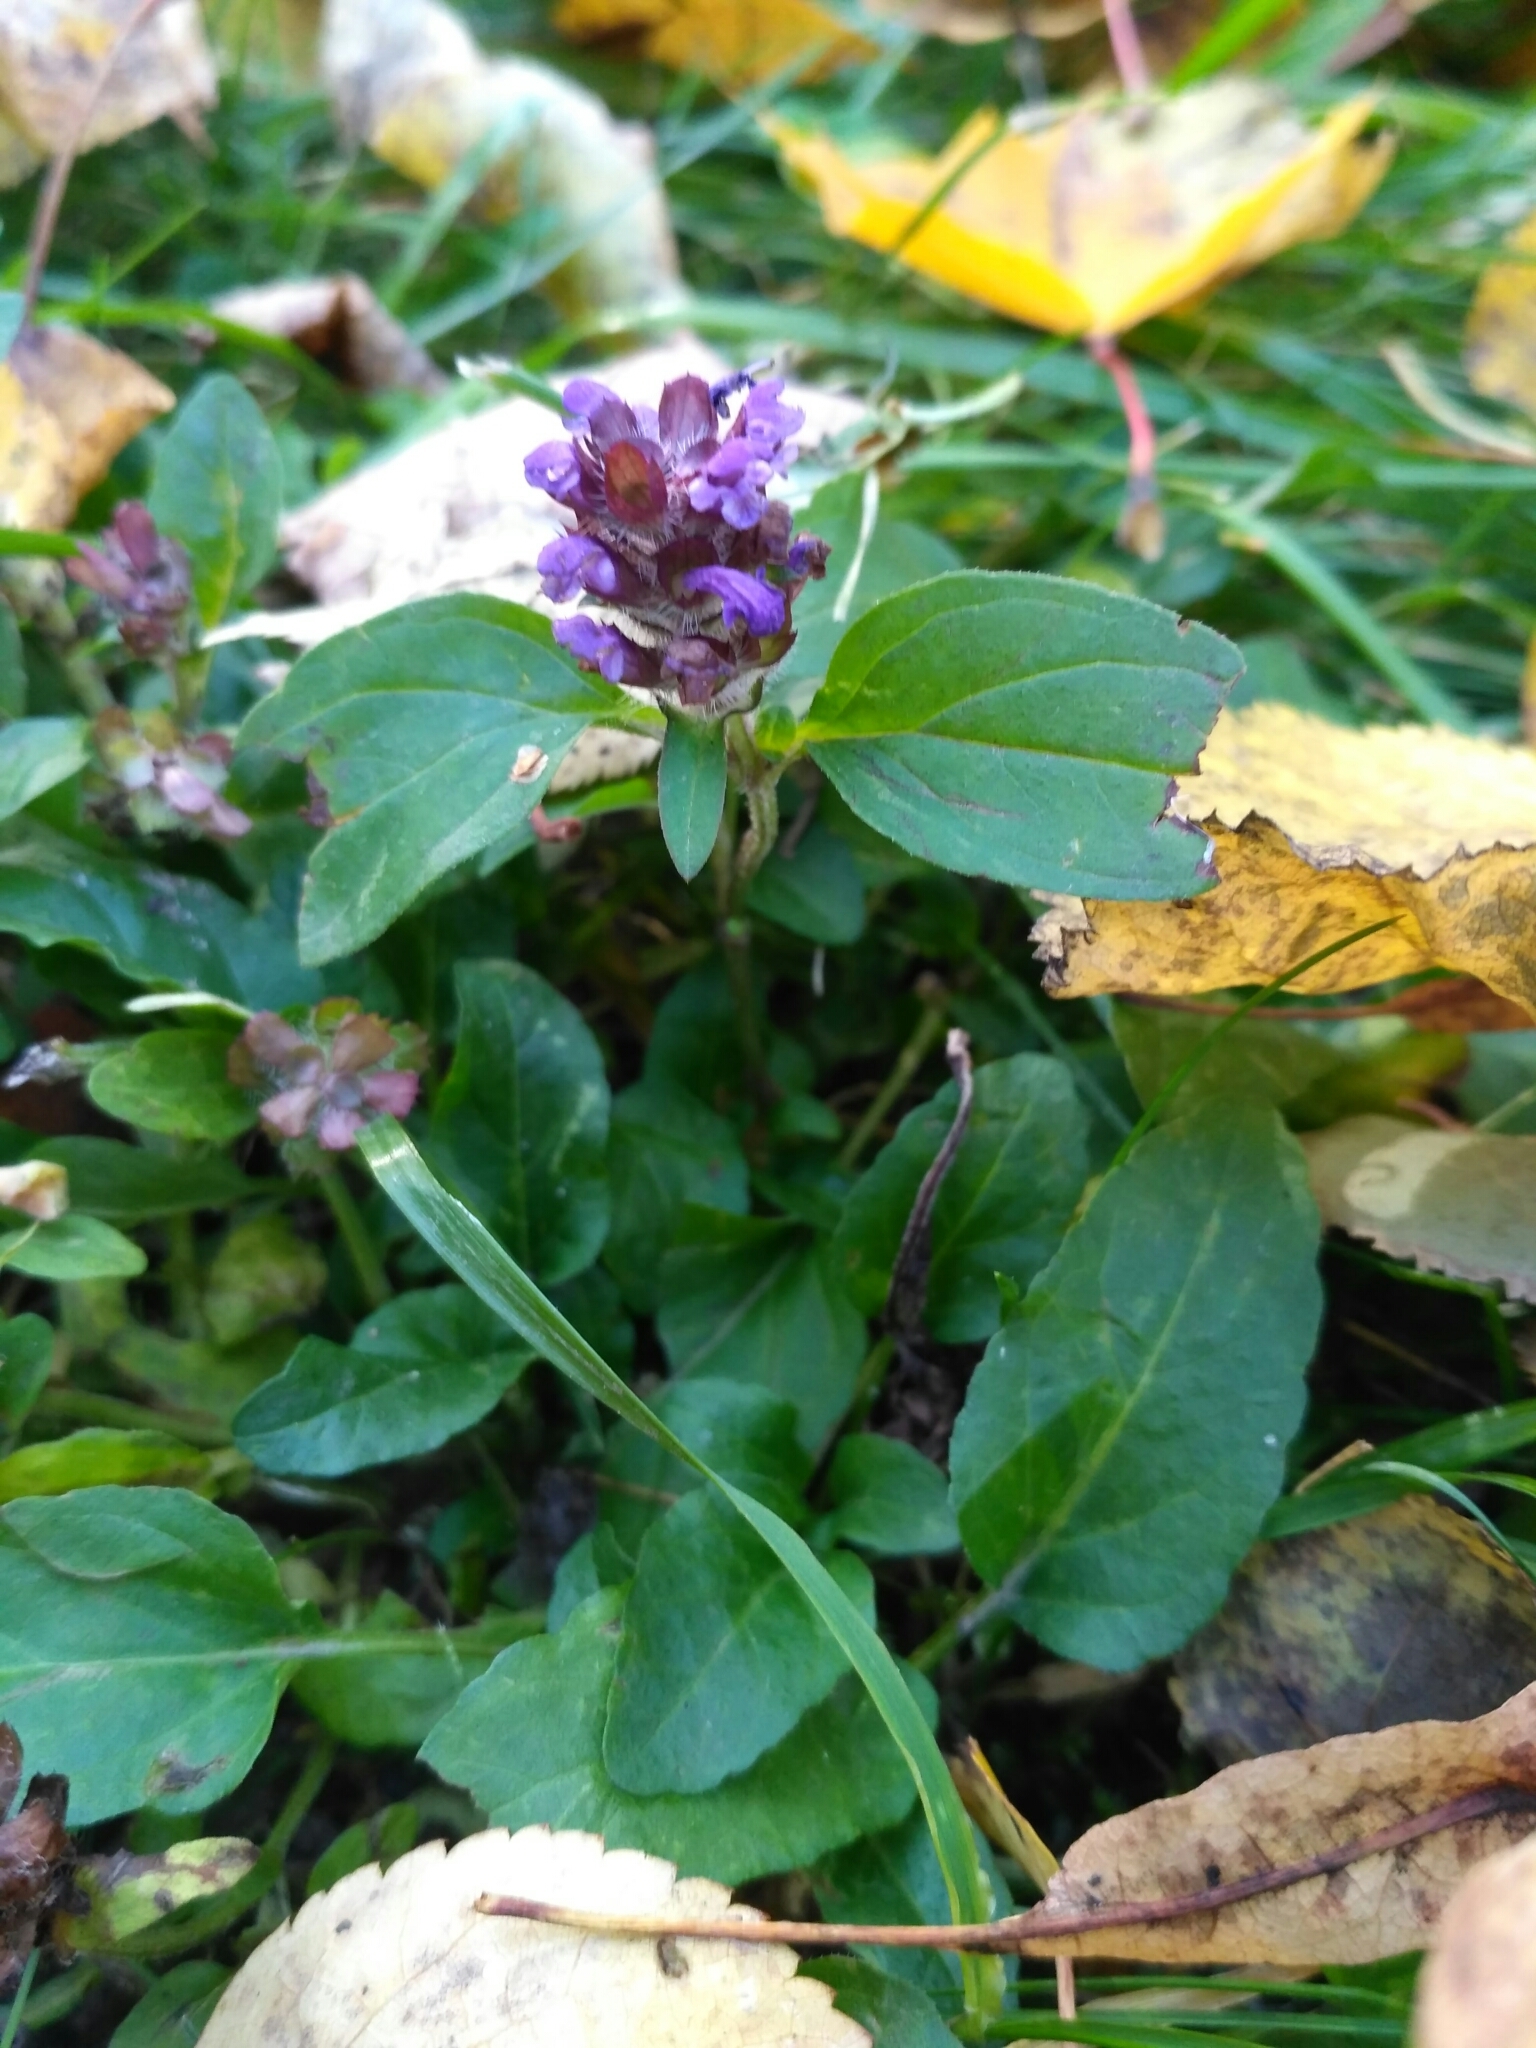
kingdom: Plantae
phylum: Tracheophyta
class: Magnoliopsida
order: Lamiales
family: Lamiaceae
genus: Prunella
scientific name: Prunella vulgaris
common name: Heal-all
